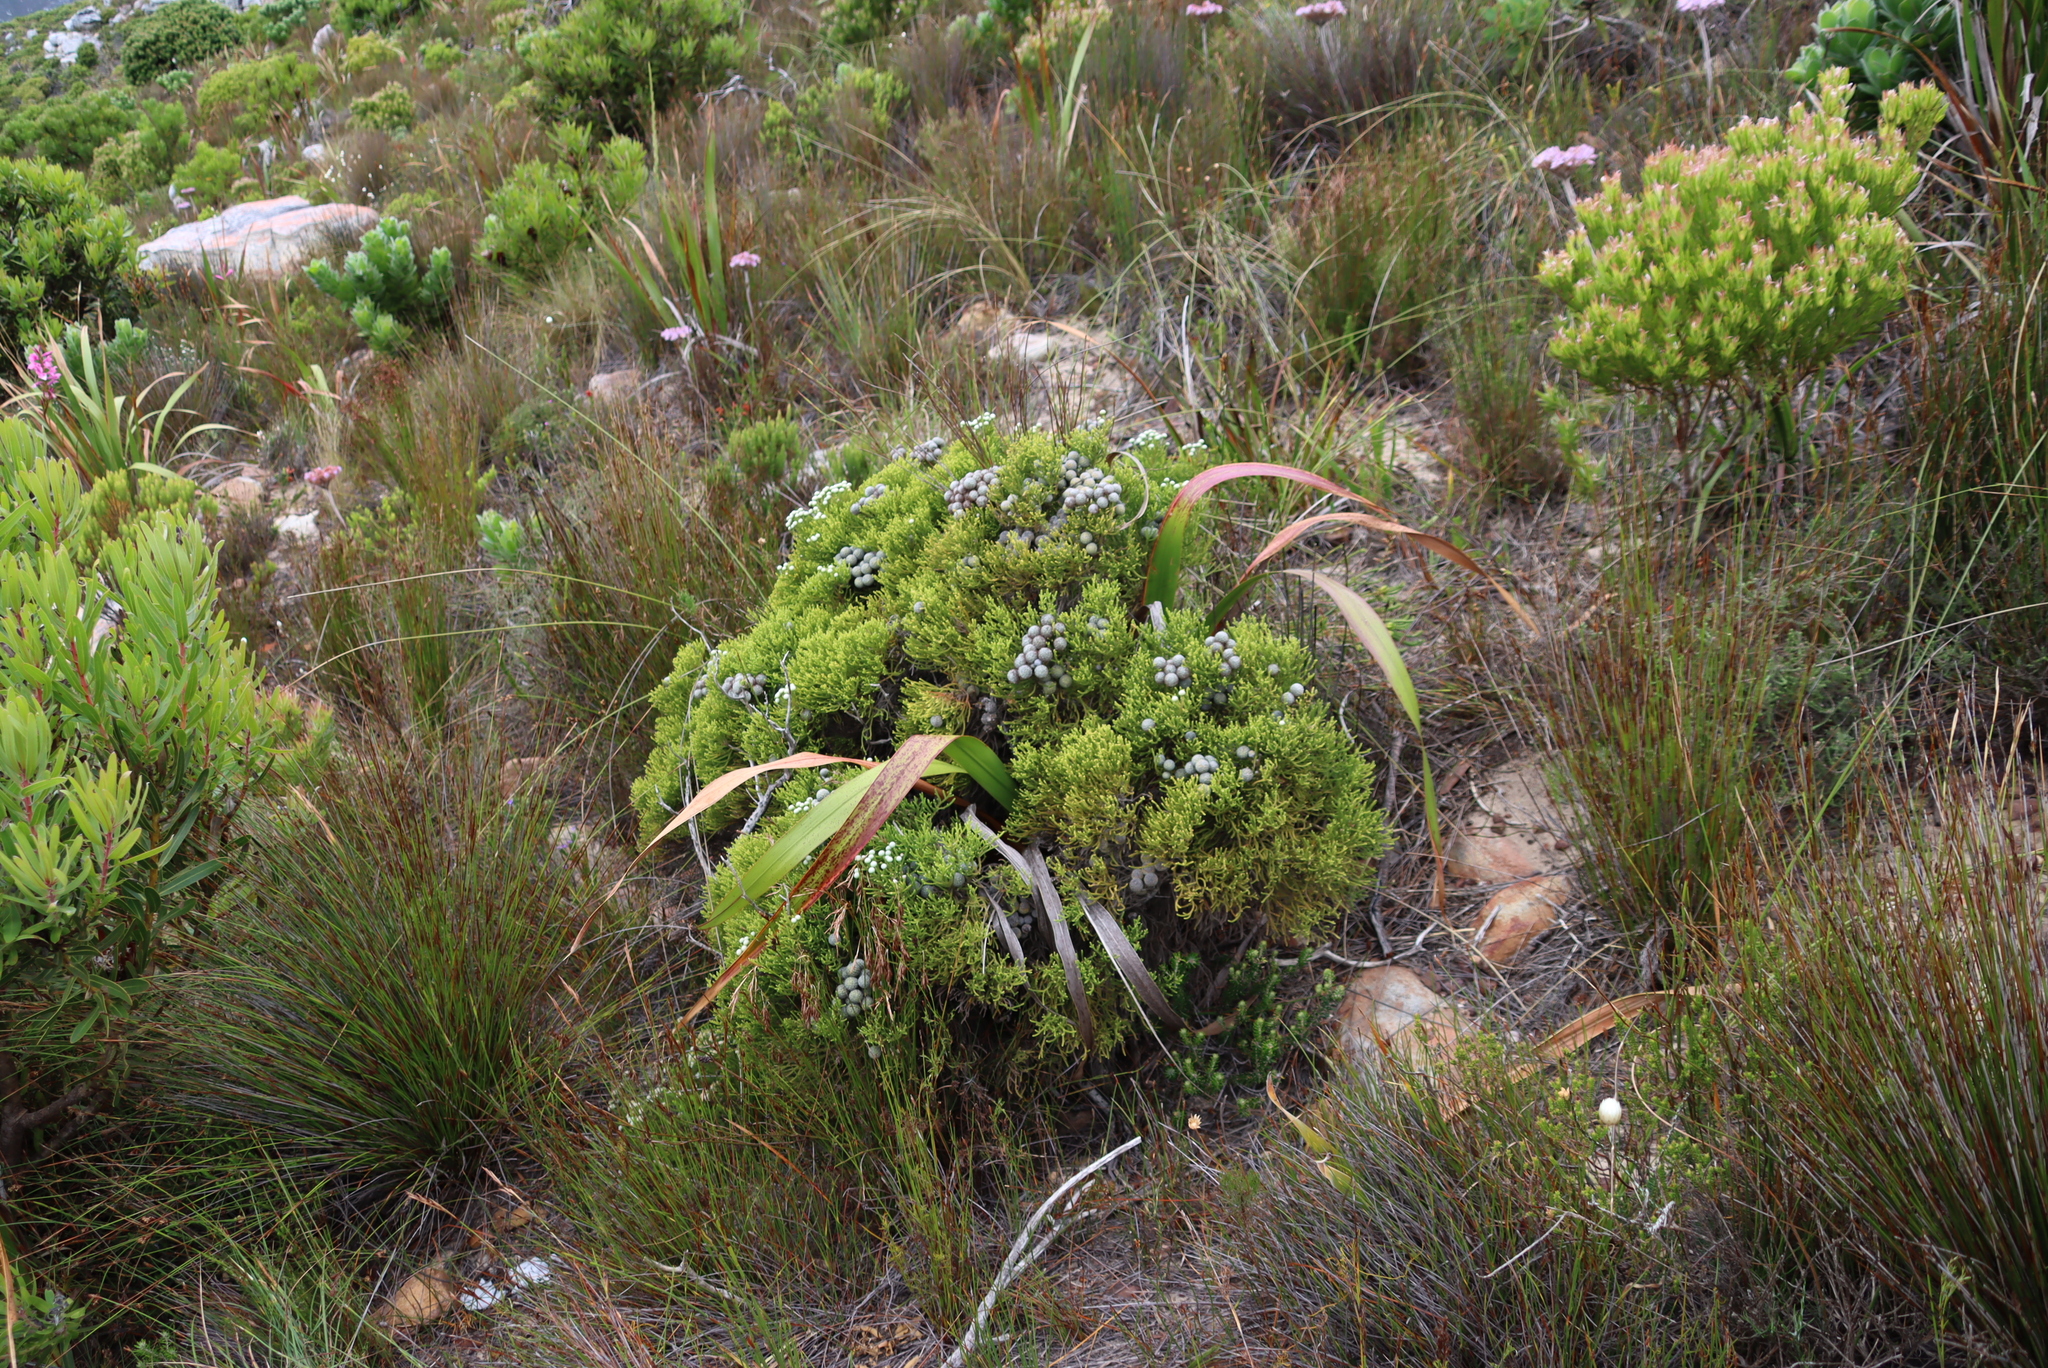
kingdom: Plantae
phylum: Tracheophyta
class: Magnoliopsida
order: Bruniales
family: Bruniaceae
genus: Brunia
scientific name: Brunia noduliflora
